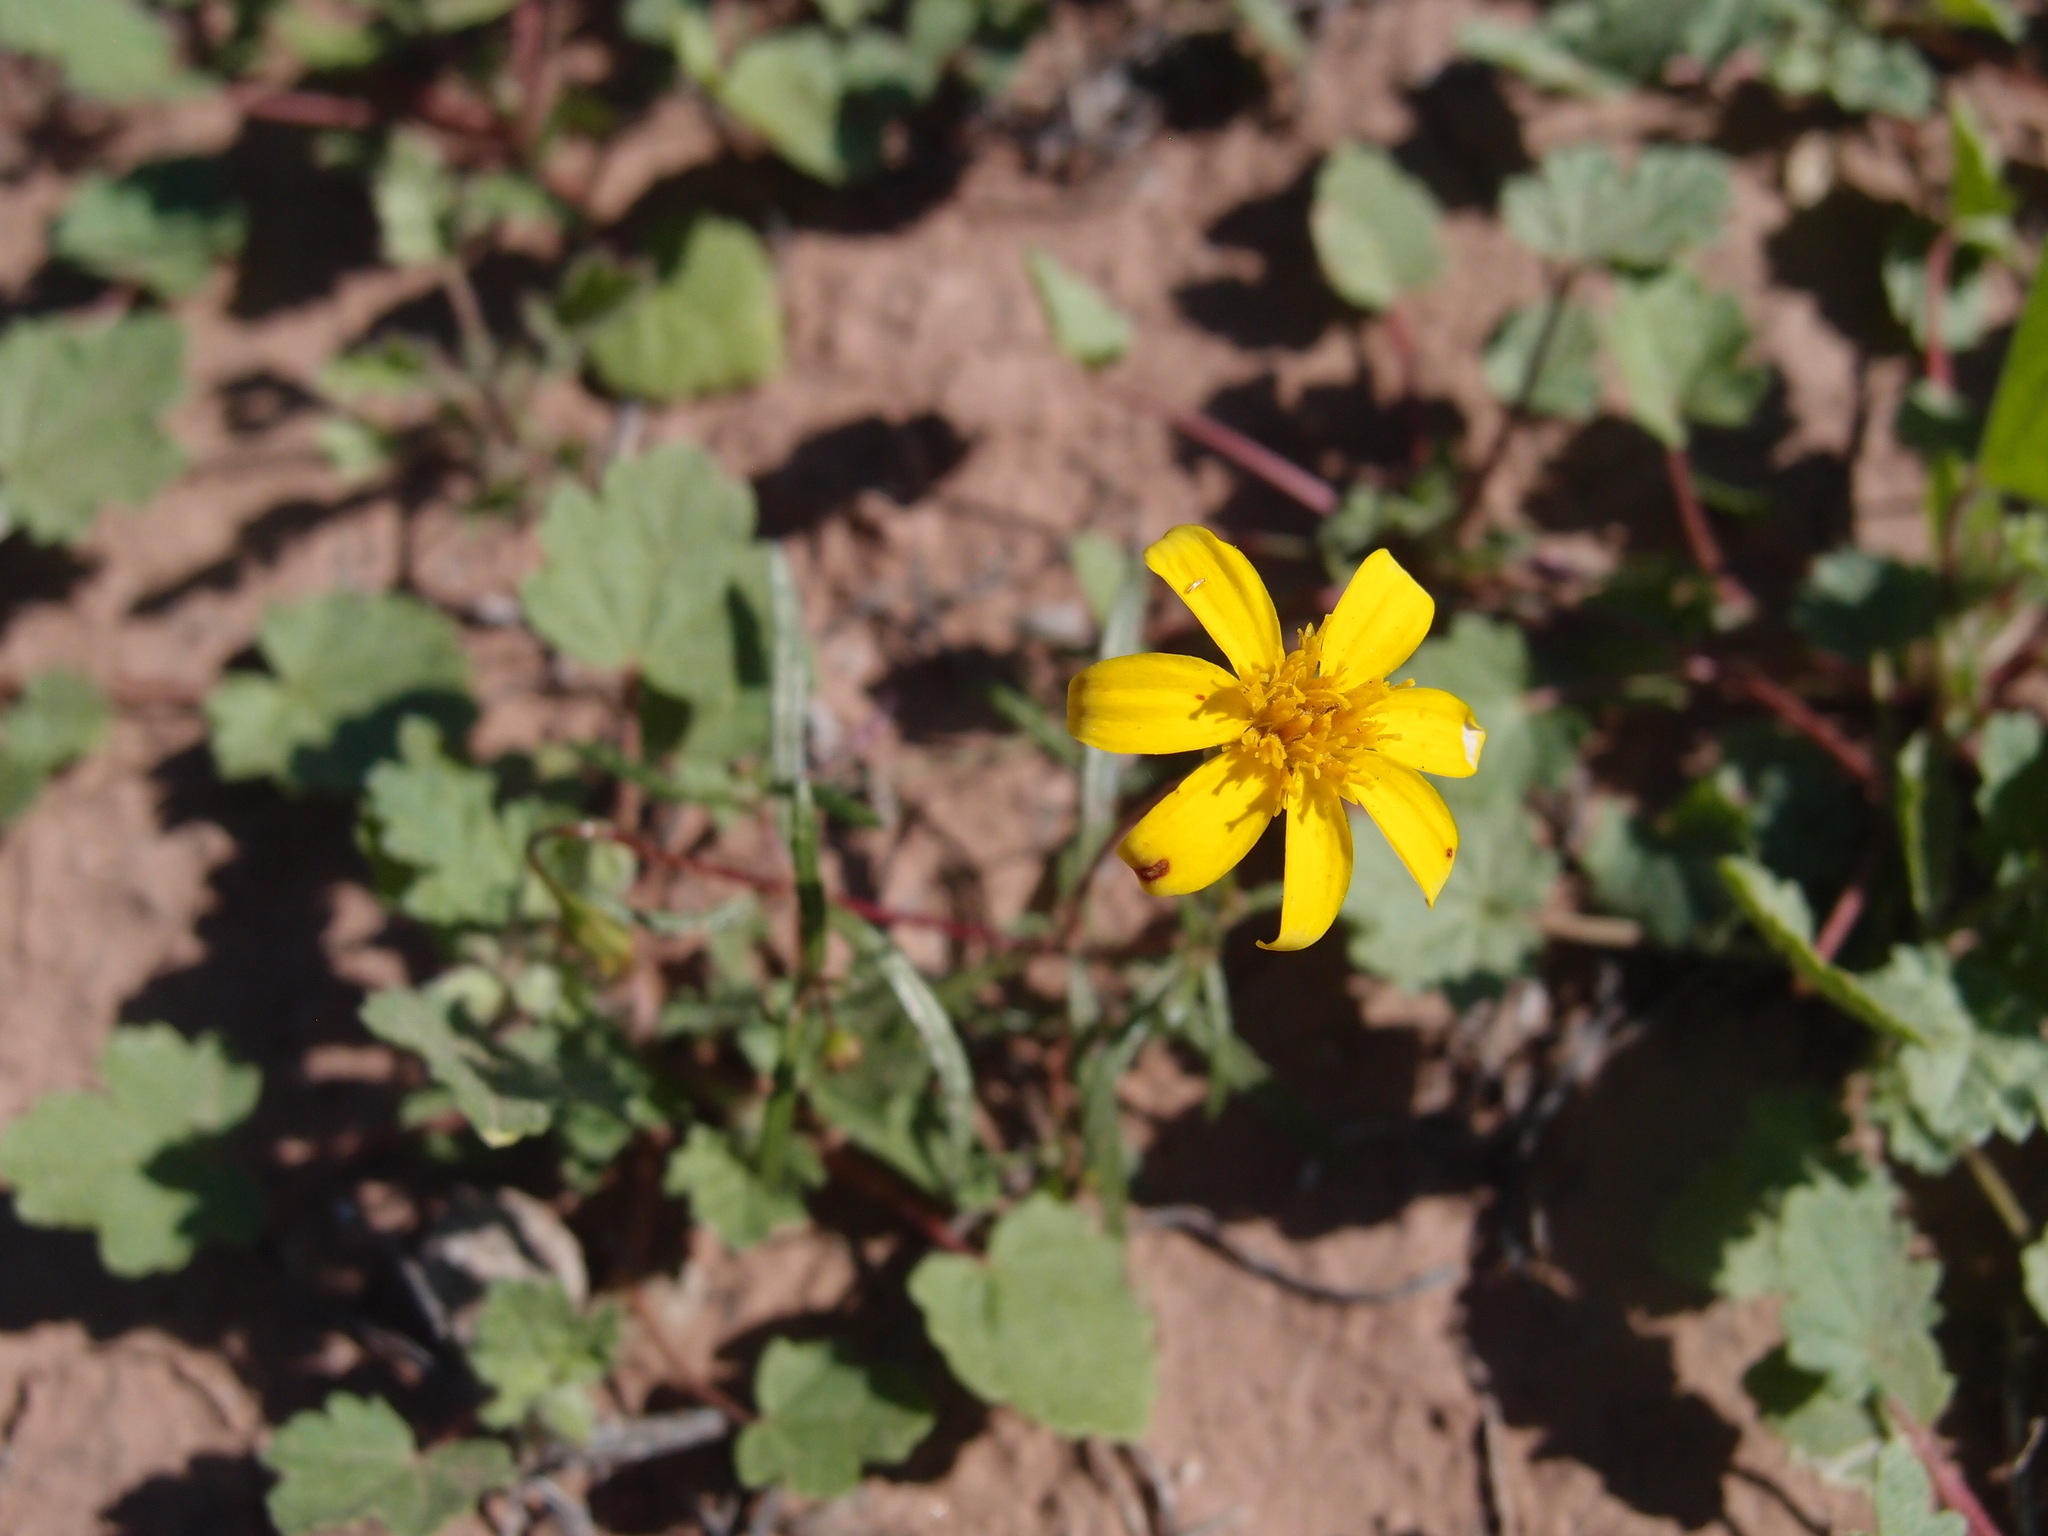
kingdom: Plantae
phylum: Tracheophyta
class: Magnoliopsida
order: Asterales
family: Asteraceae
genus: Pectis
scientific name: Pectis rusbyi
